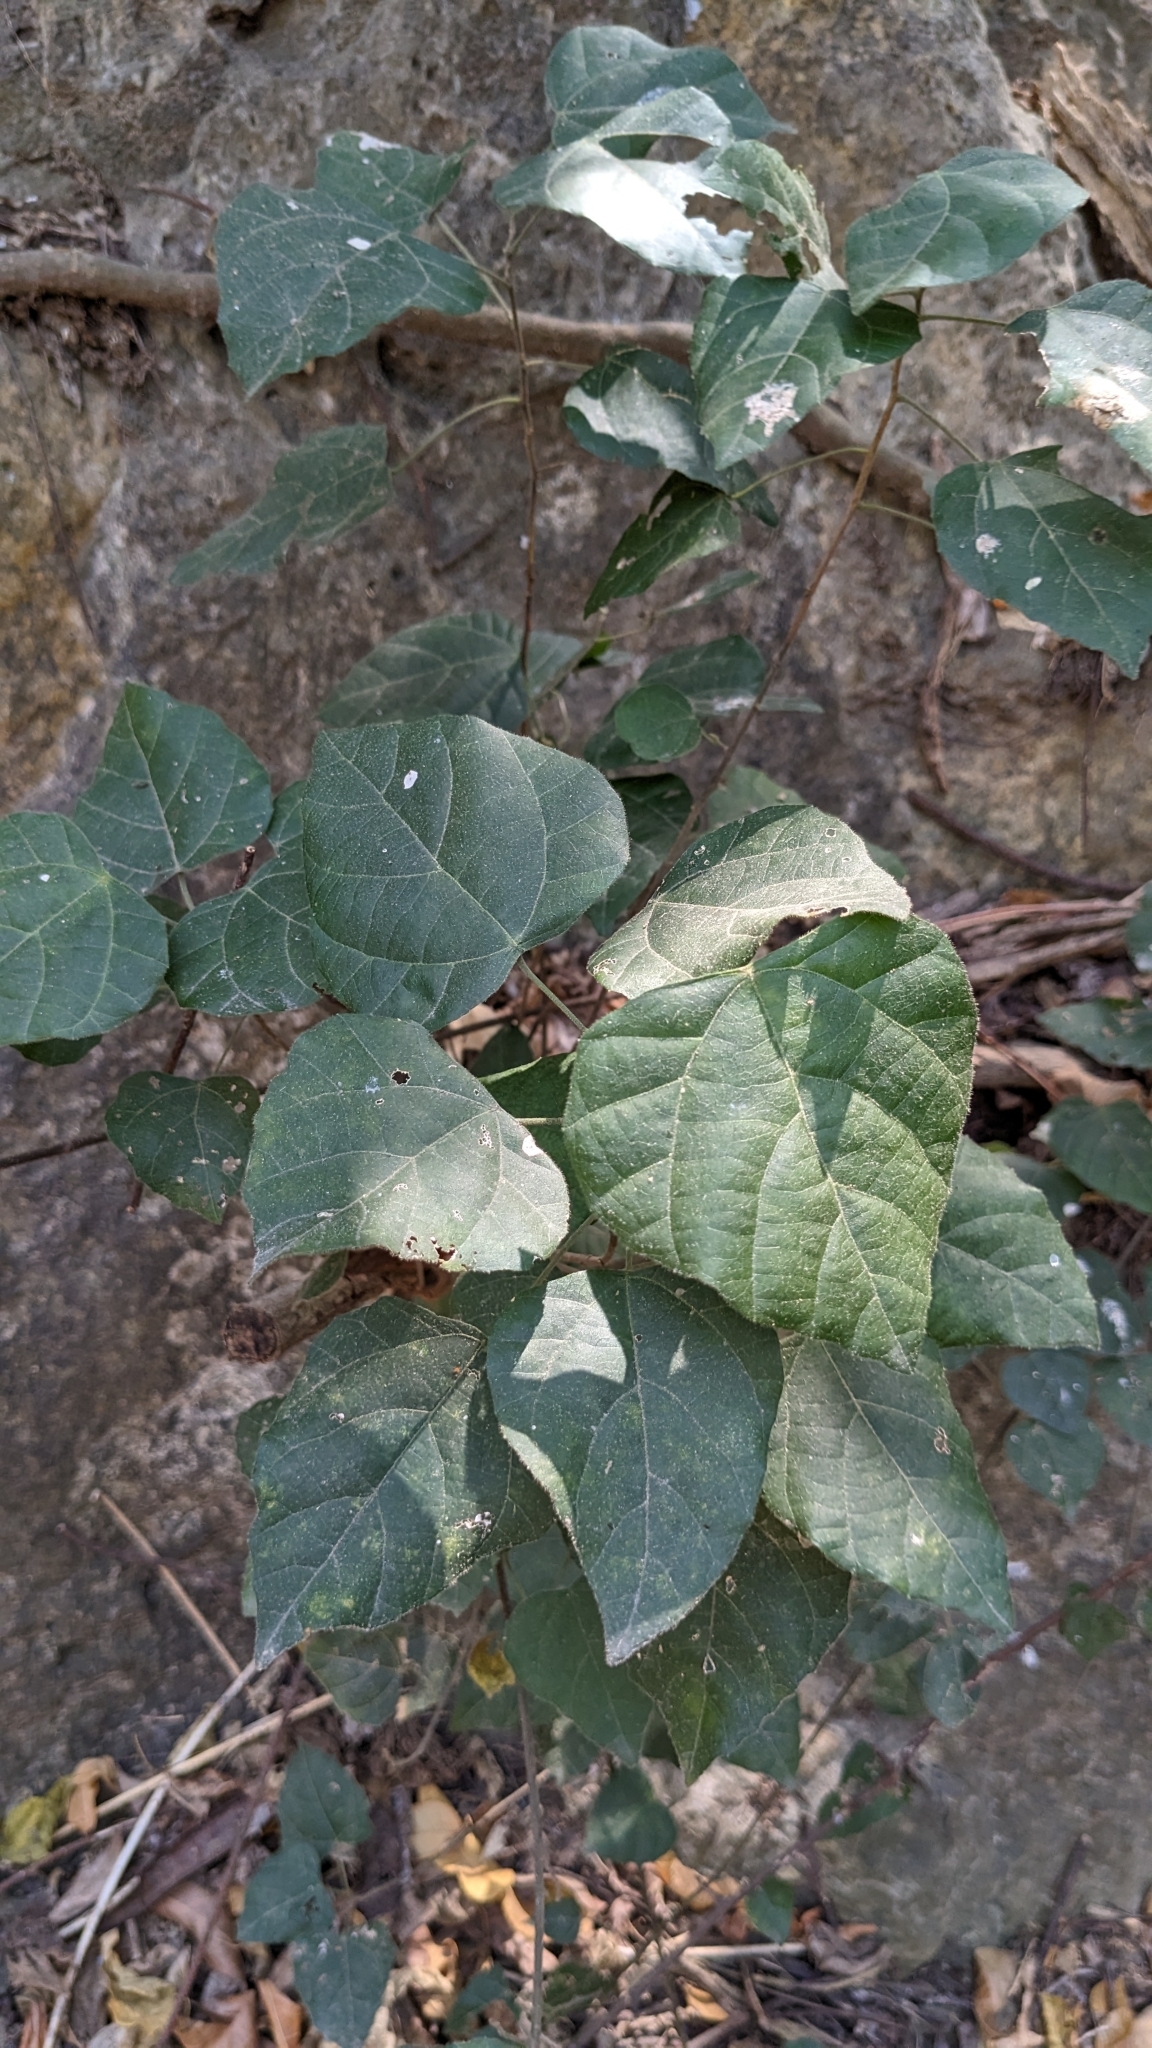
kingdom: Plantae
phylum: Tracheophyta
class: Magnoliopsida
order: Malpighiales
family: Euphorbiaceae
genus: Mallotus
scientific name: Mallotus repandus
